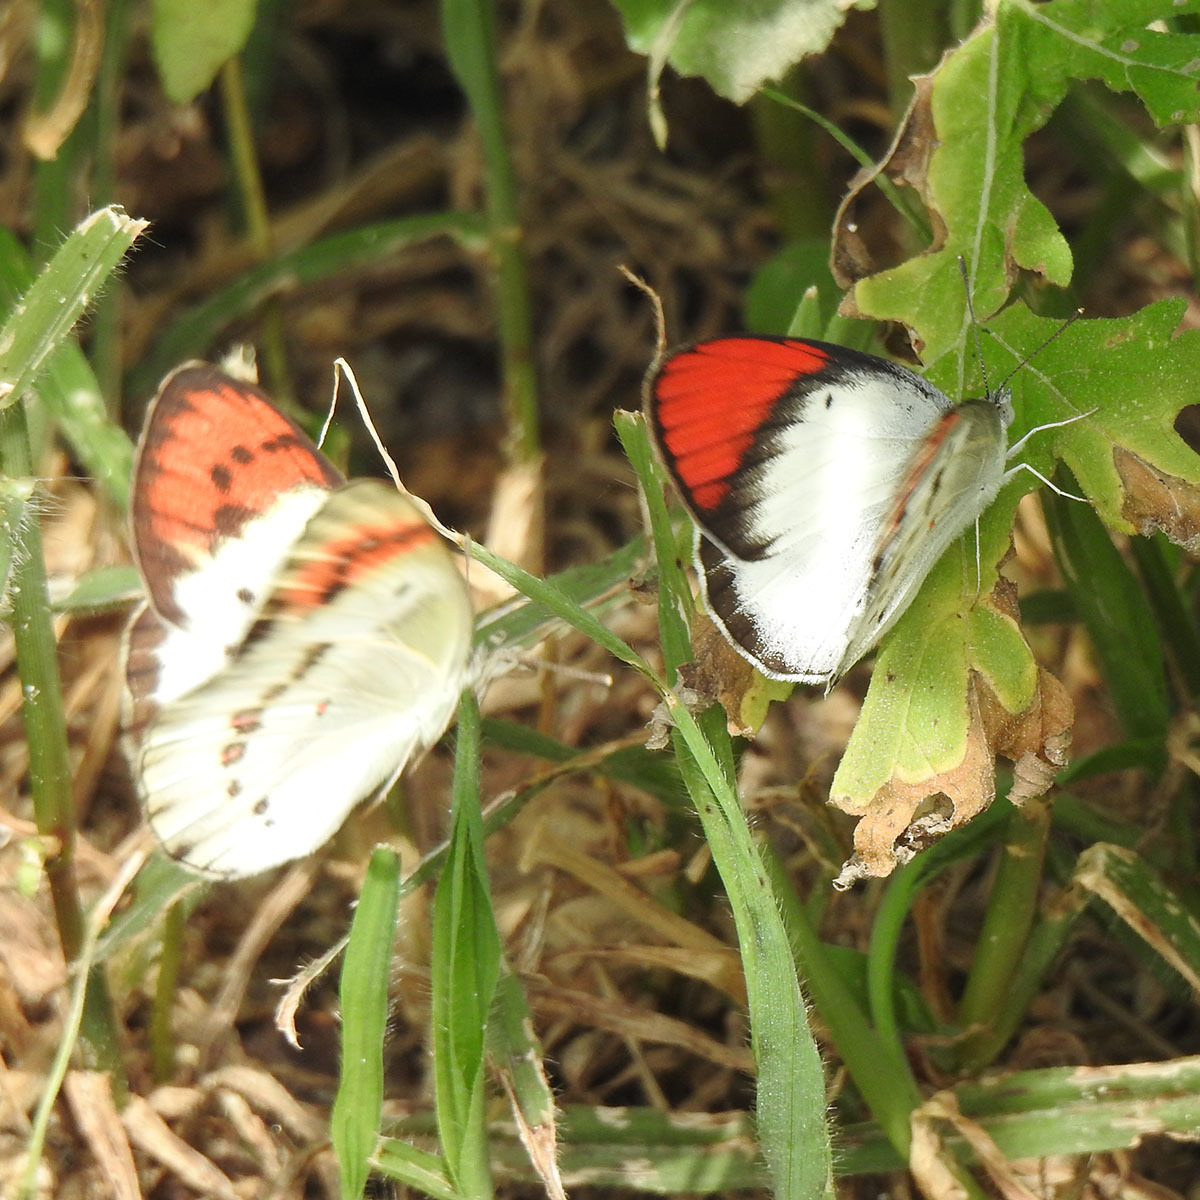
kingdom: Animalia
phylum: Arthropoda
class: Insecta
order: Lepidoptera
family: Pieridae
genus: Colotis
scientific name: Colotis danae
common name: Crimson tip
